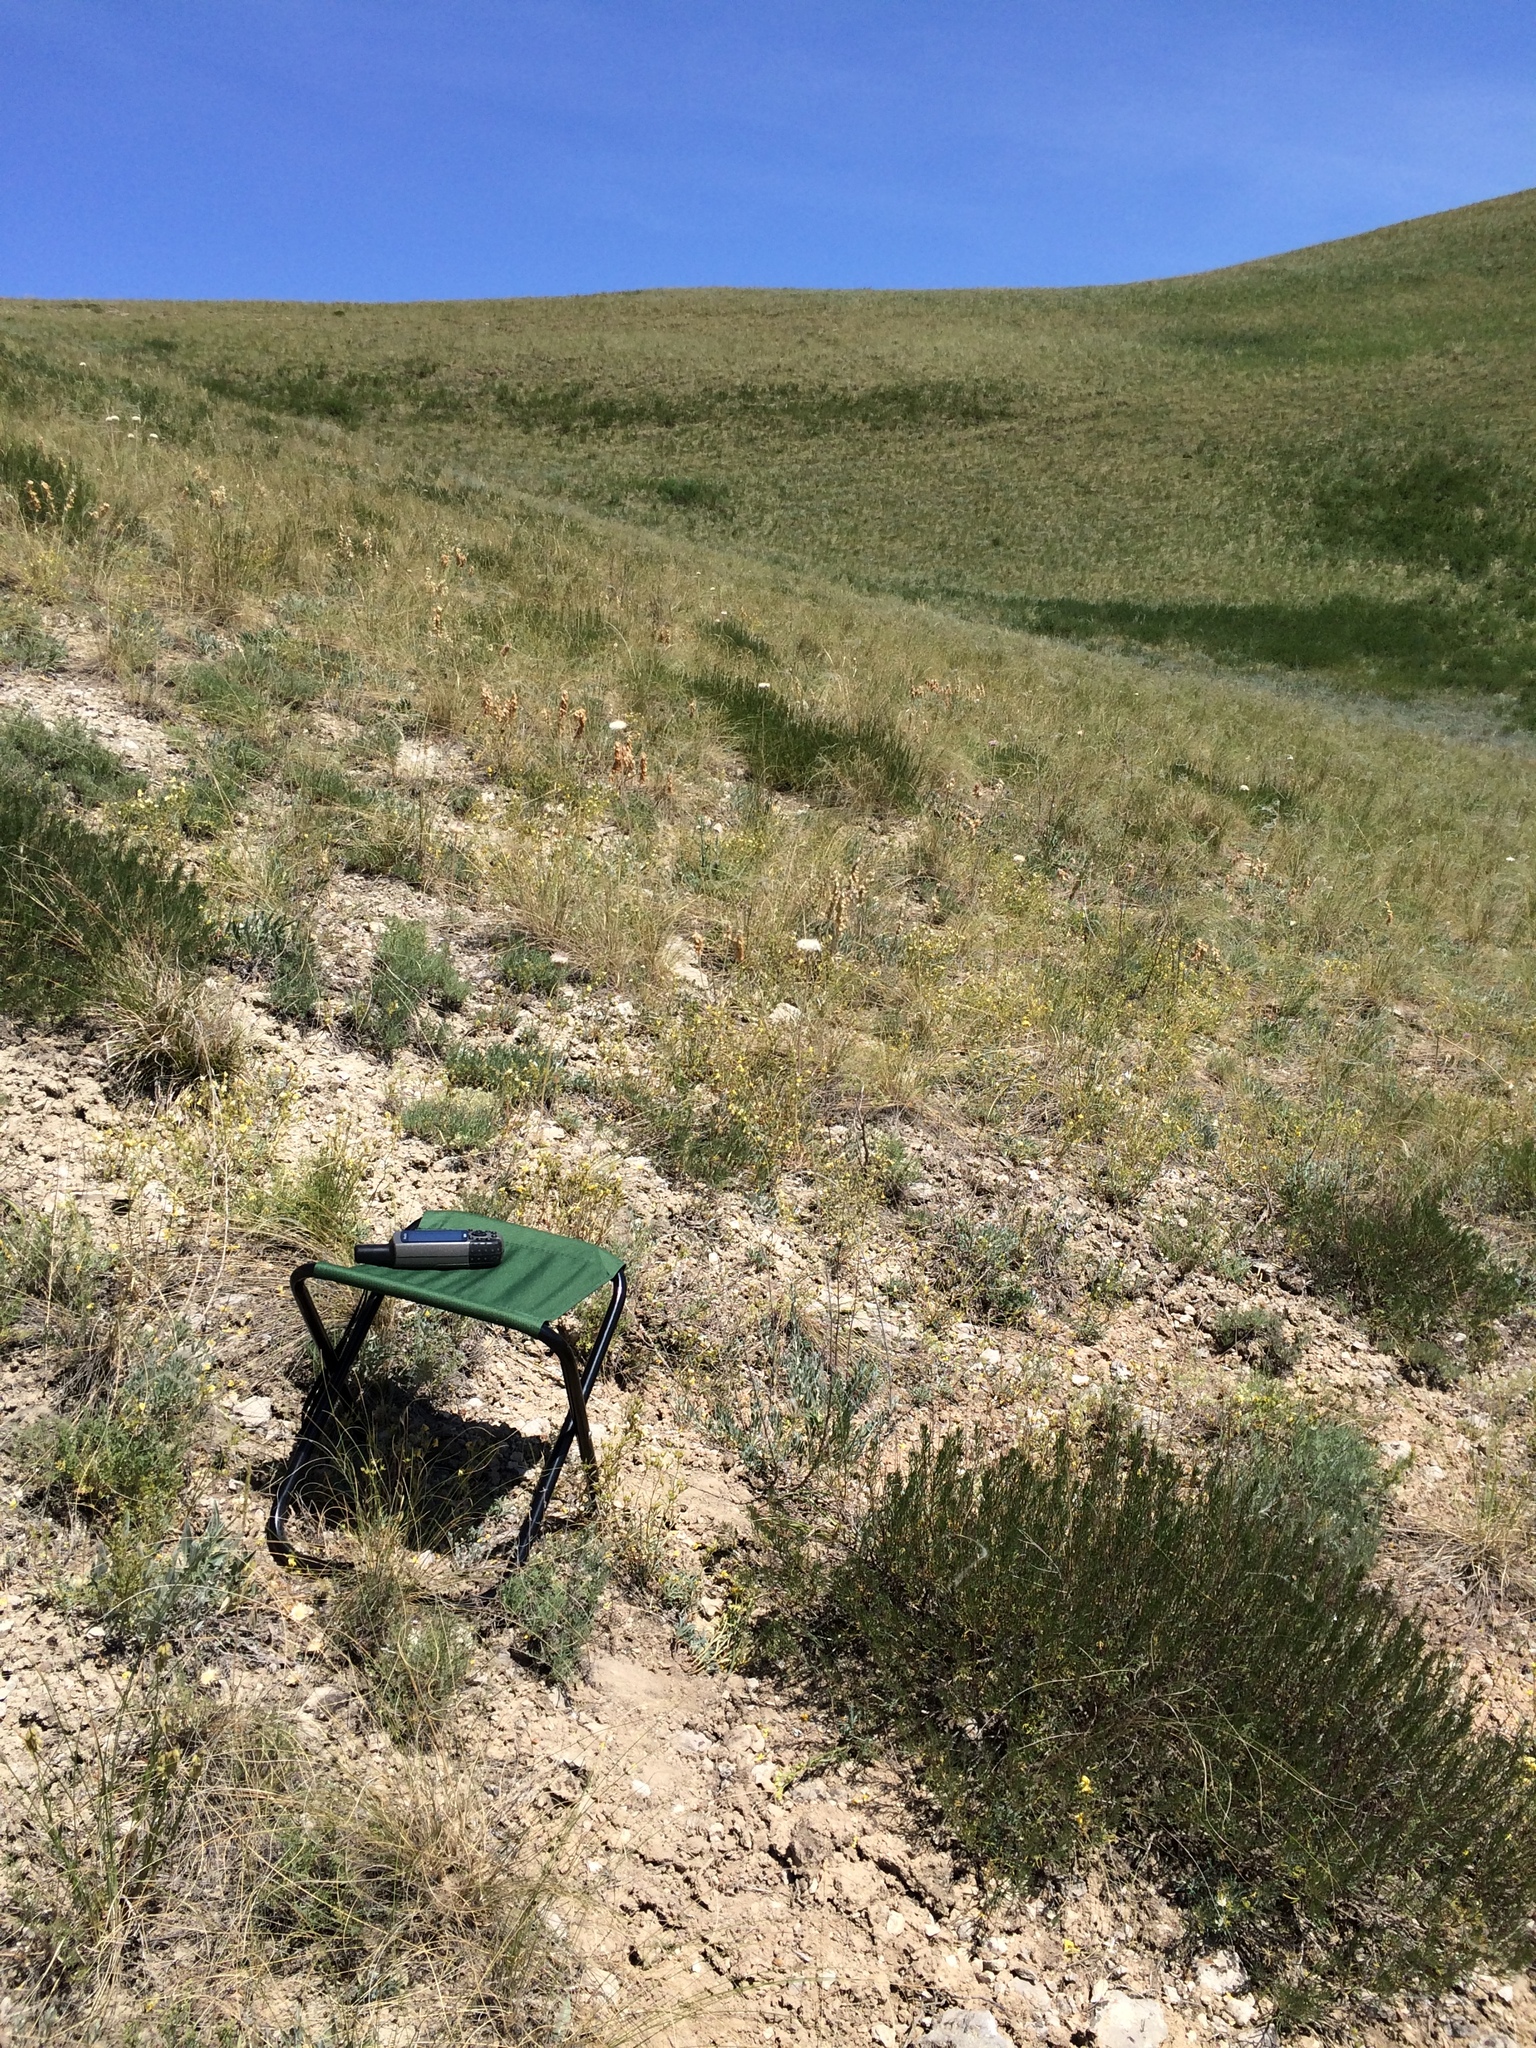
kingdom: Plantae
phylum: Tracheophyta
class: Magnoliopsida
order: Asterales
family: Asteraceae
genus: Artemisia
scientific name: Artemisia salsoloides
